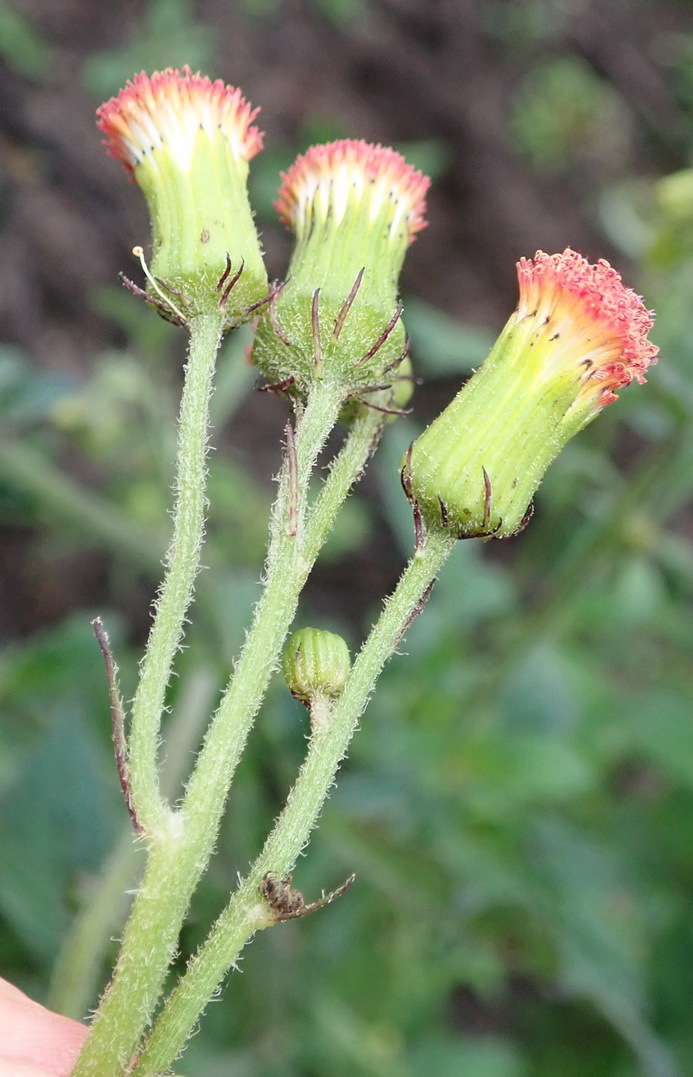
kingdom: Plantae
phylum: Tracheophyta
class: Magnoliopsida
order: Asterales
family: Asteraceae
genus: Crassocephalum
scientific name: Crassocephalum crepidioides
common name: Redflower ragleaf
